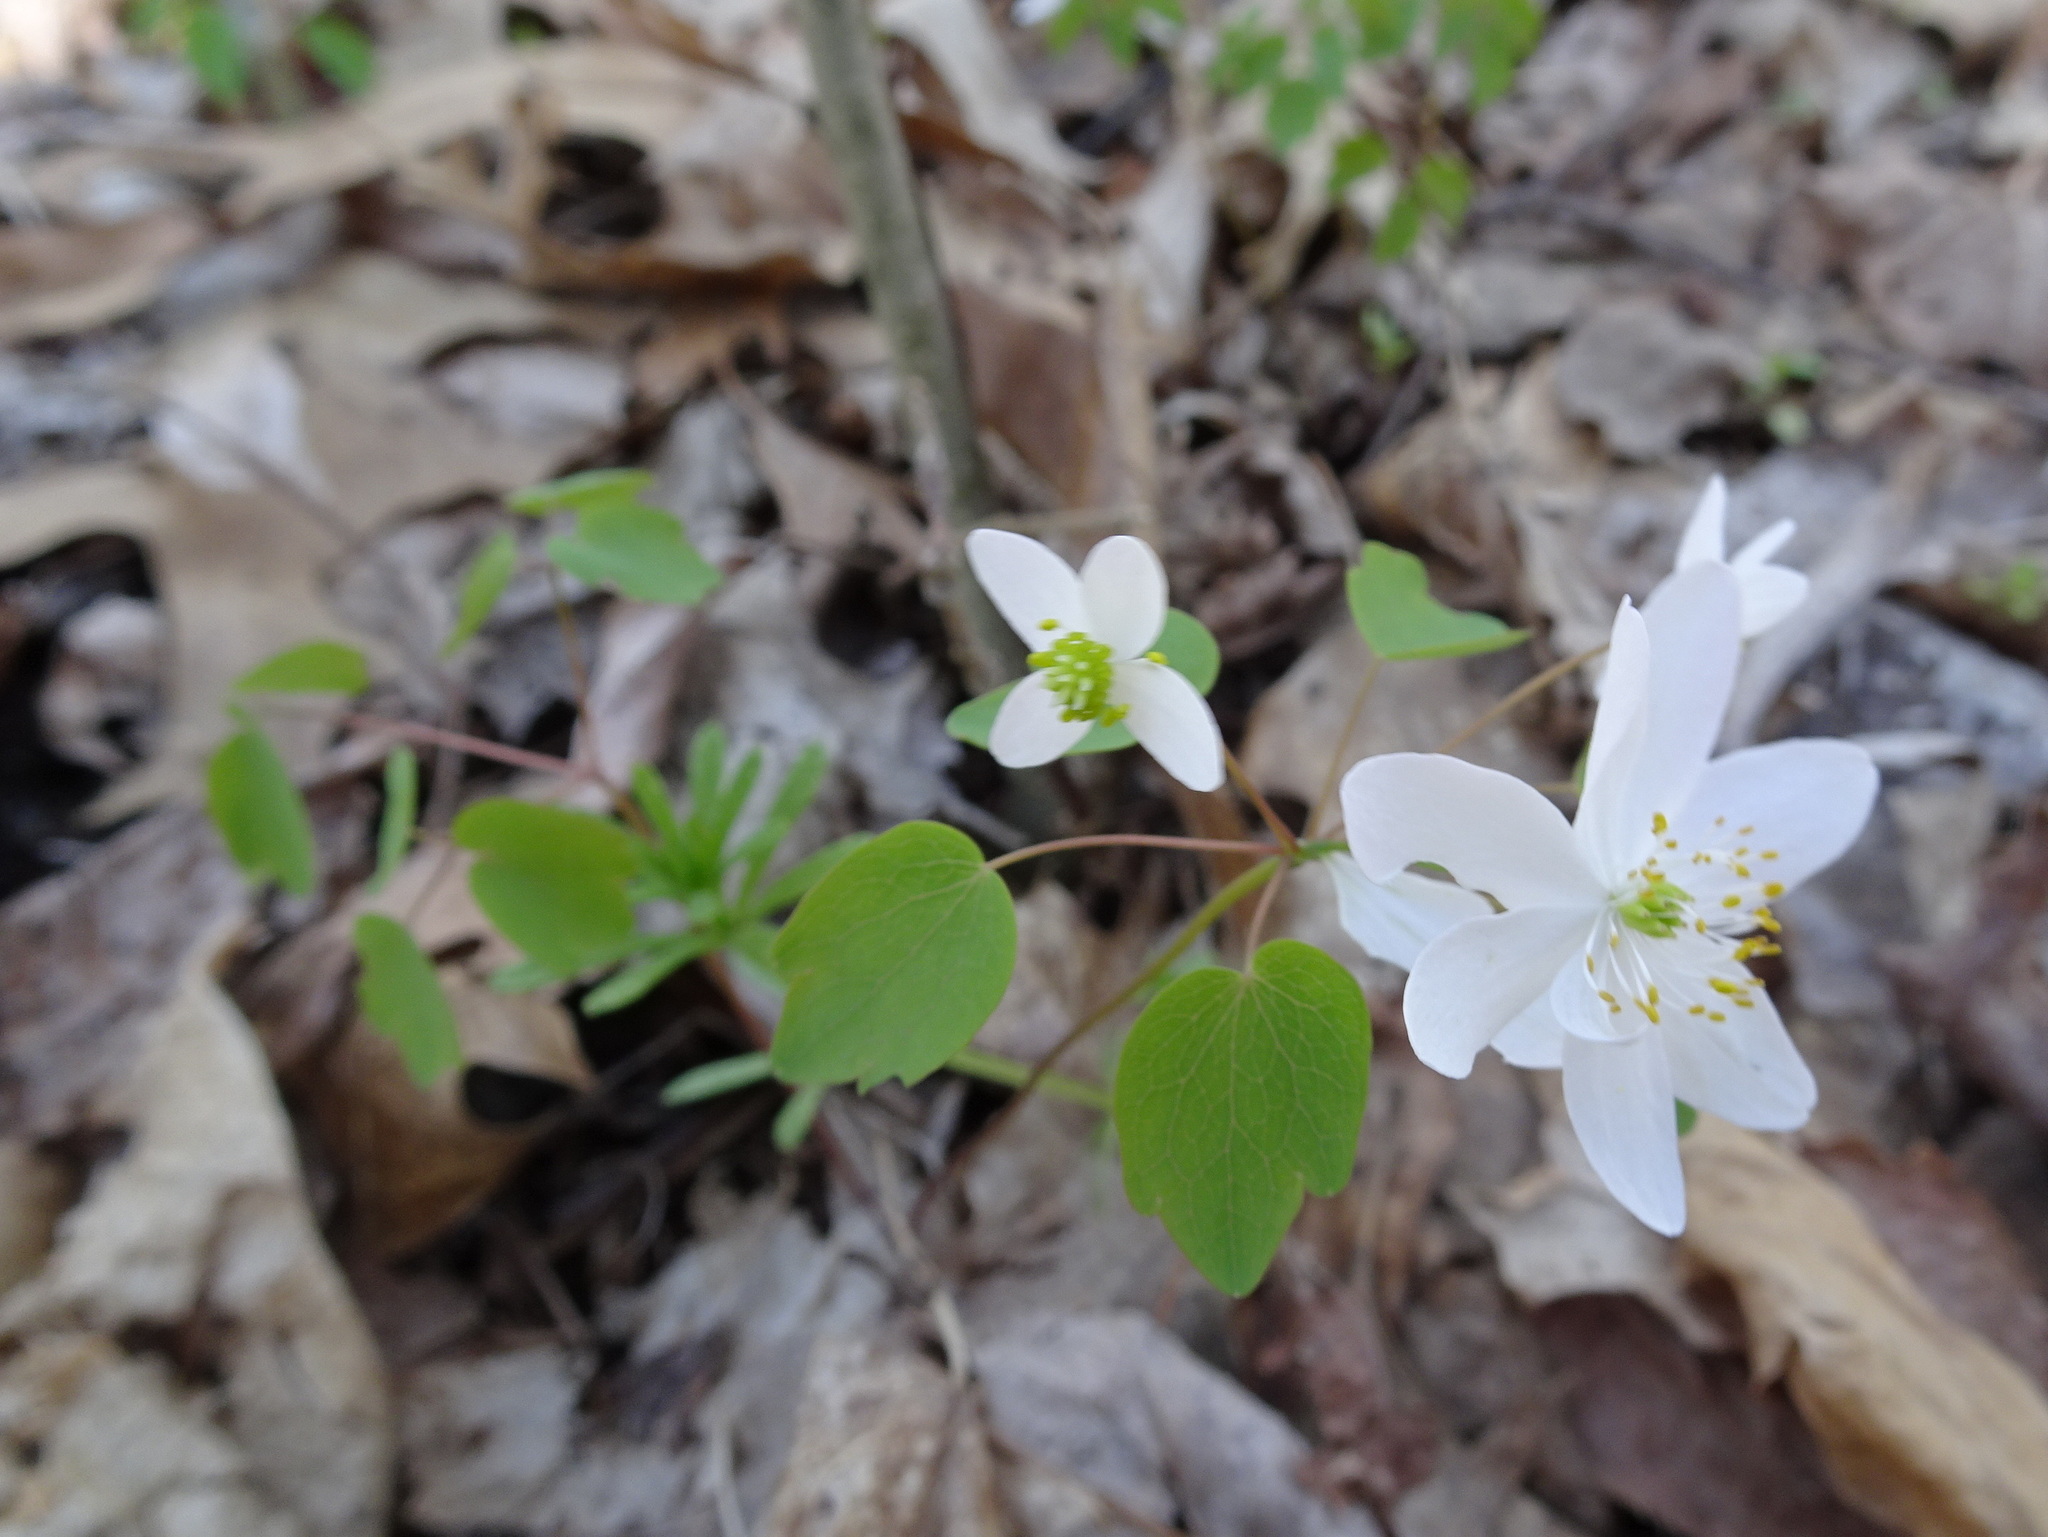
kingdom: Plantae
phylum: Tracheophyta
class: Magnoliopsida
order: Ranunculales
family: Ranunculaceae
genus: Thalictrum
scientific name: Thalictrum thalictroides
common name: Rue-anemone
